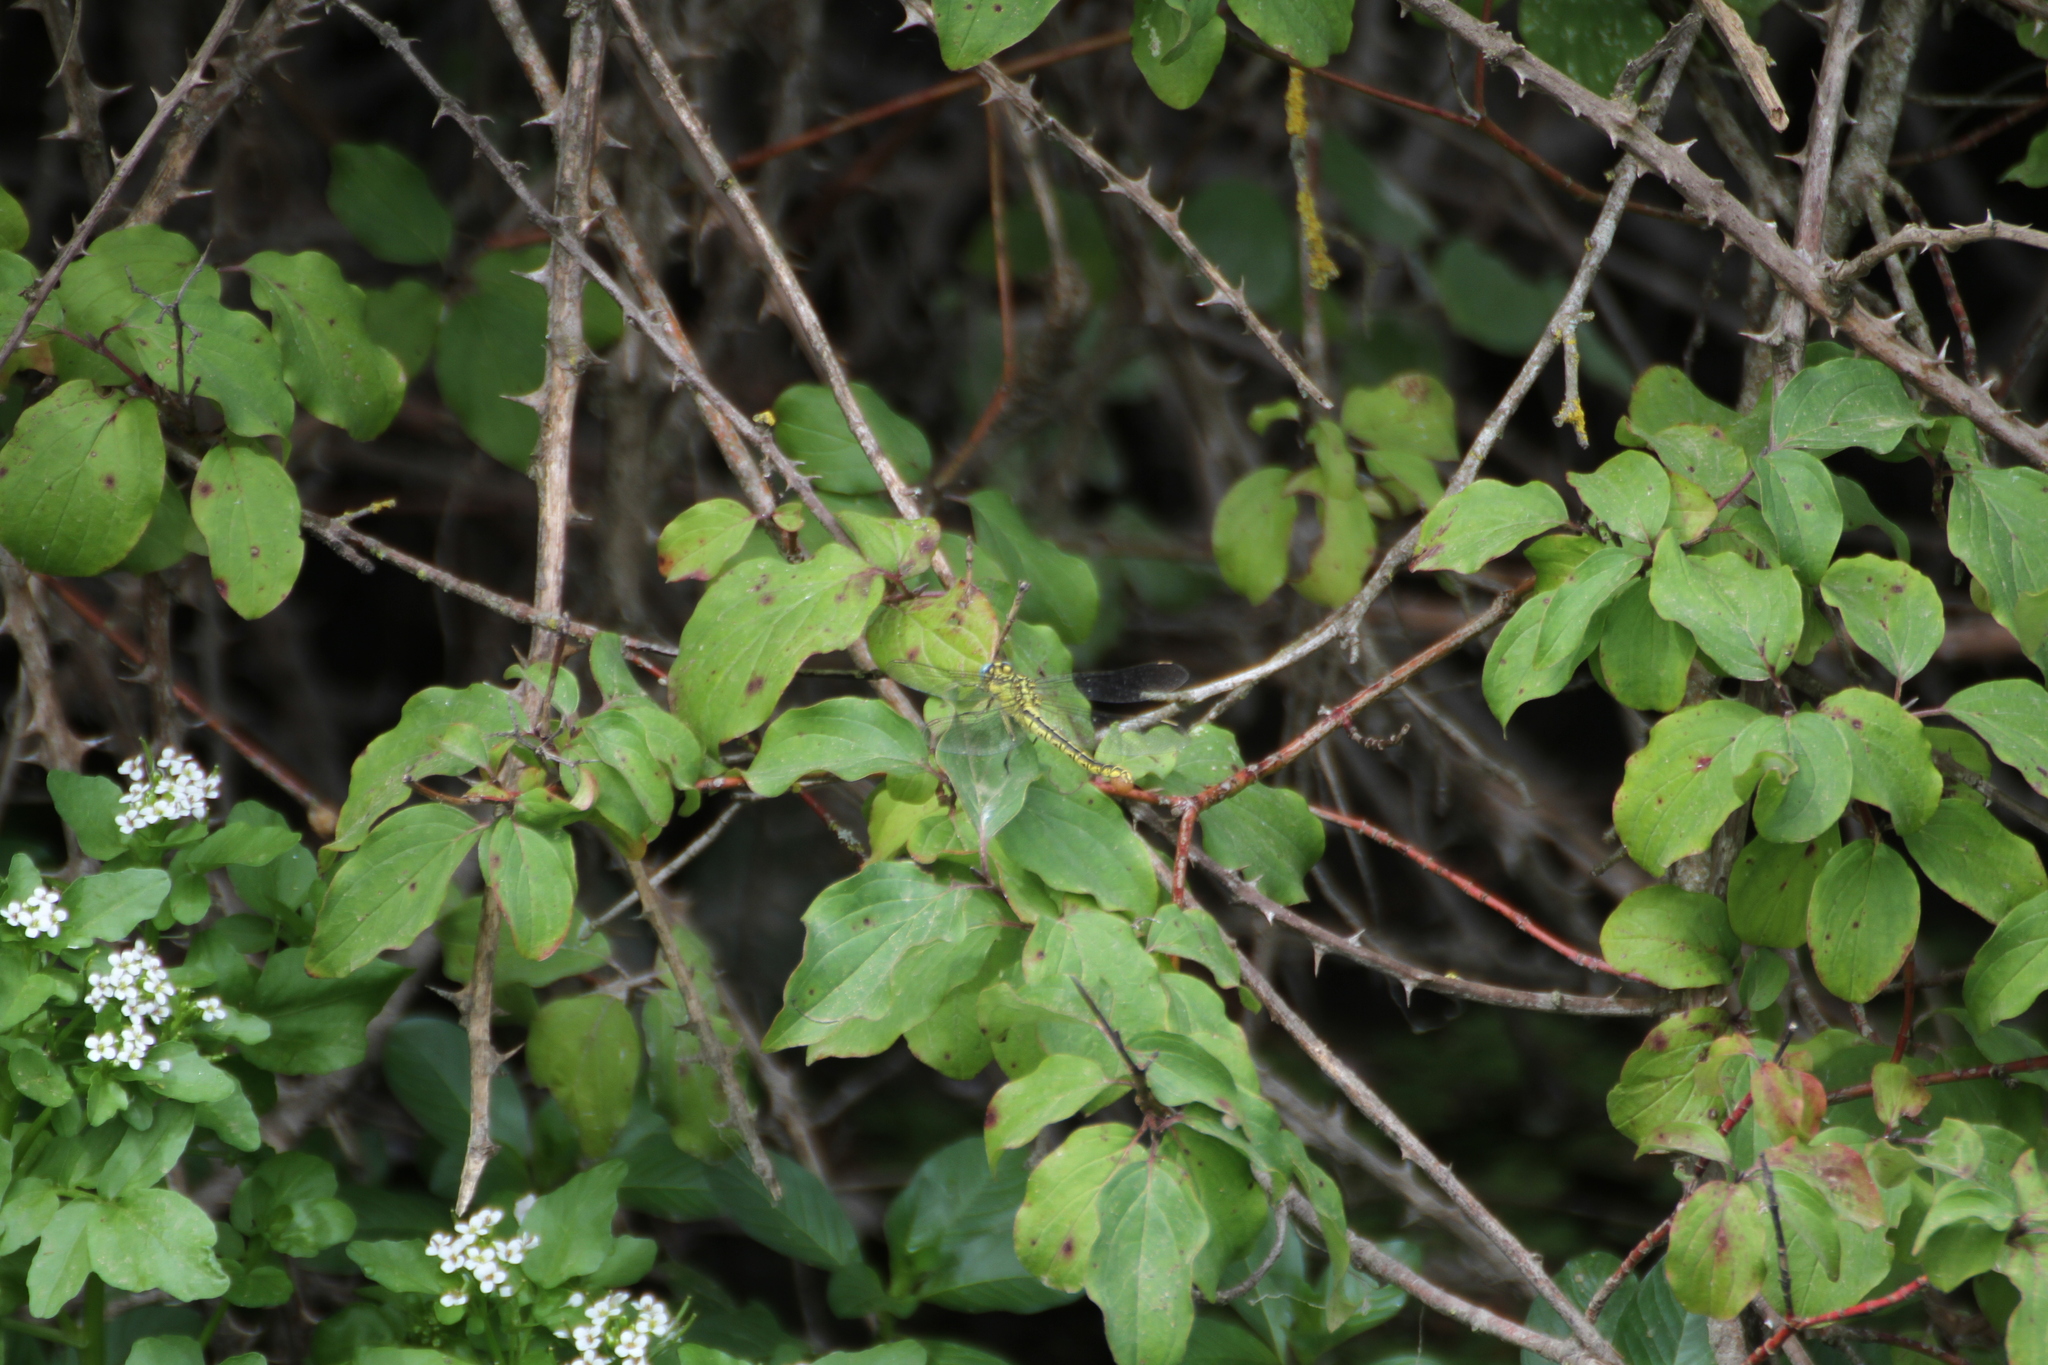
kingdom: Animalia
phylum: Arthropoda
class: Insecta
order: Odonata
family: Gomphidae
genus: Gomphus
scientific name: Gomphus simillimus
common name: Yellow clubtail
